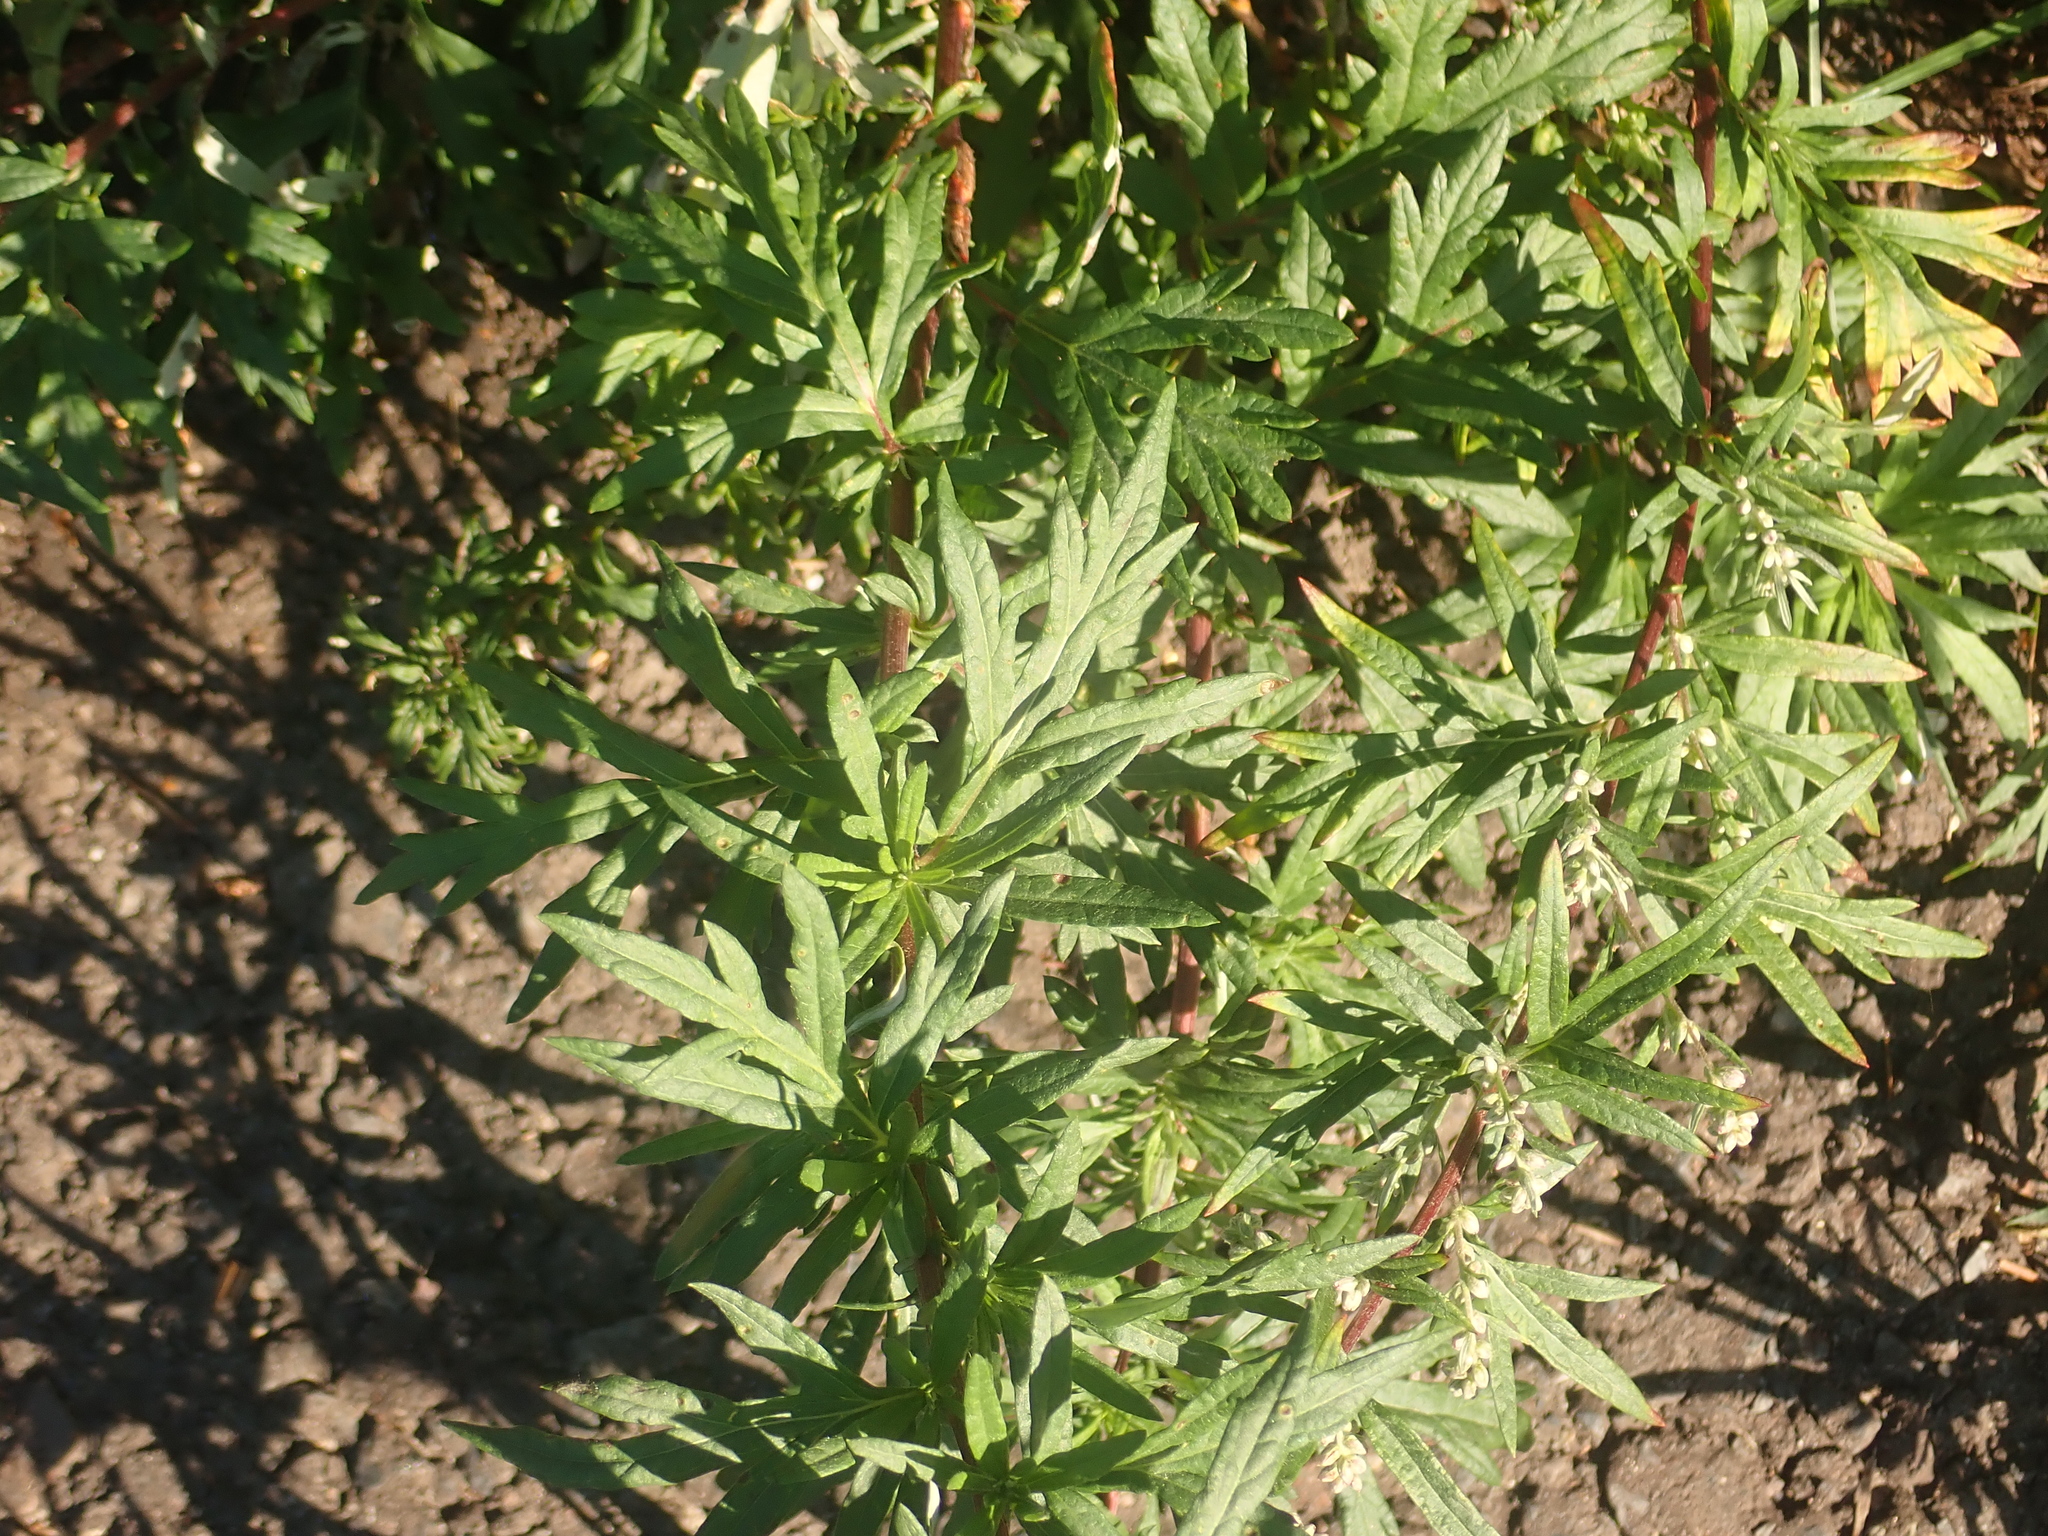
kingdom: Plantae
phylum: Tracheophyta
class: Magnoliopsida
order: Asterales
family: Asteraceae
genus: Artemisia
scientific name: Artemisia vulgaris
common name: Mugwort
